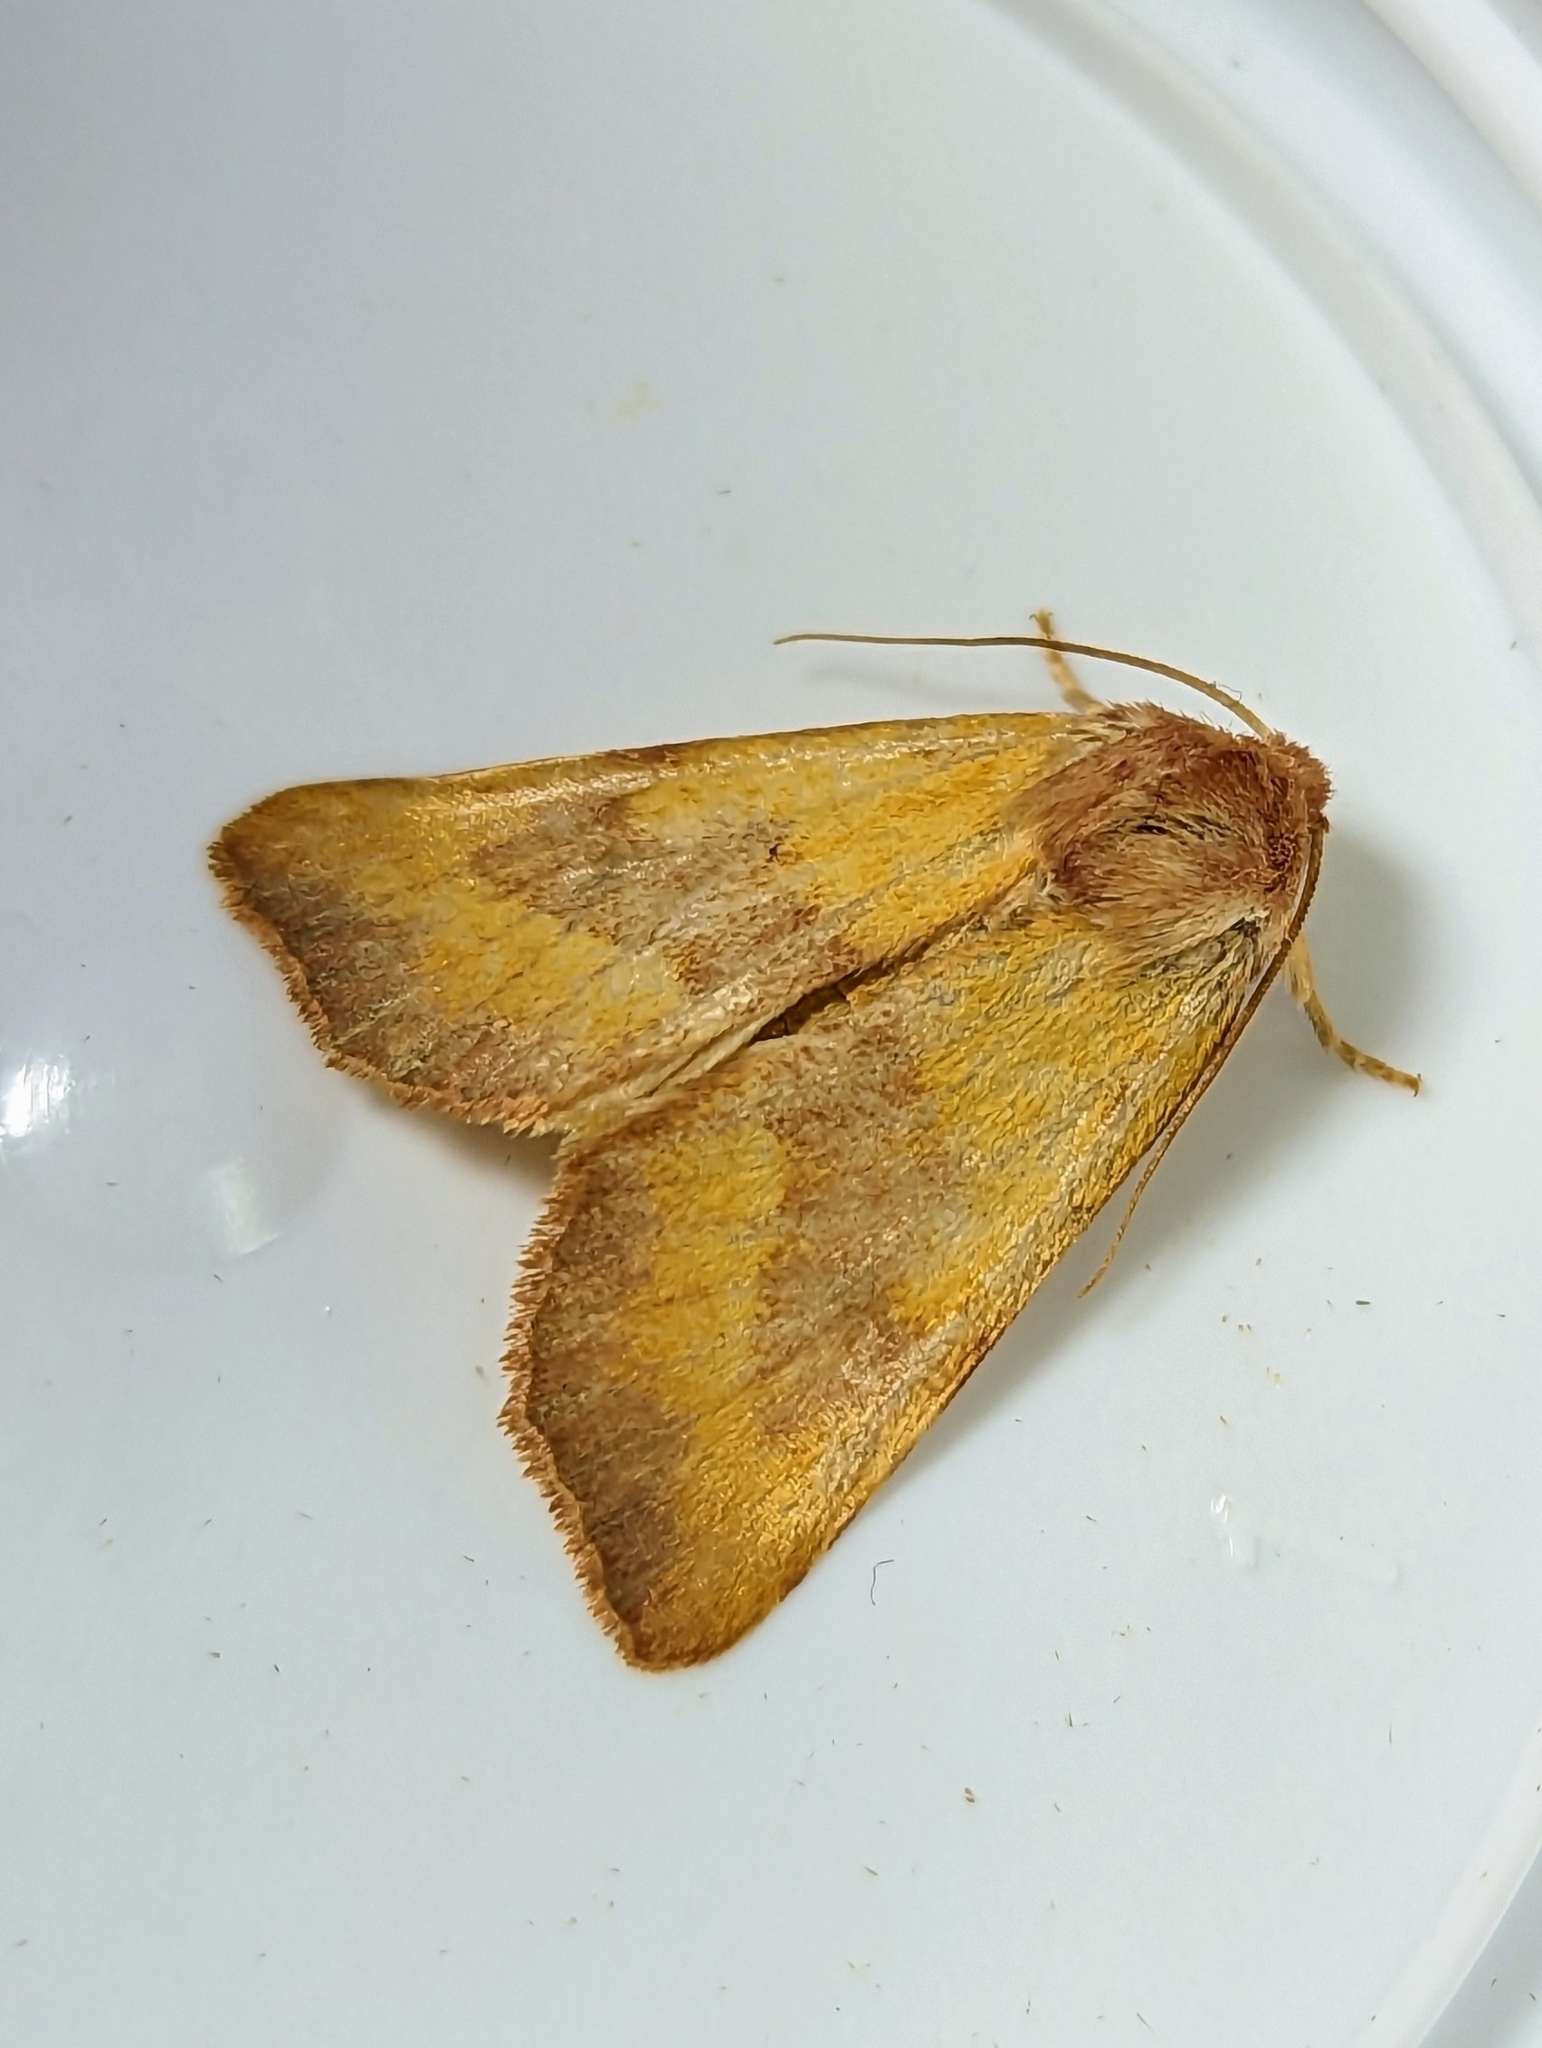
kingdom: Animalia
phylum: Arthropoda
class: Insecta
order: Lepidoptera
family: Noctuidae
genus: Atethmia
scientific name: Atethmia centrago
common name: Centre-barred sallow
